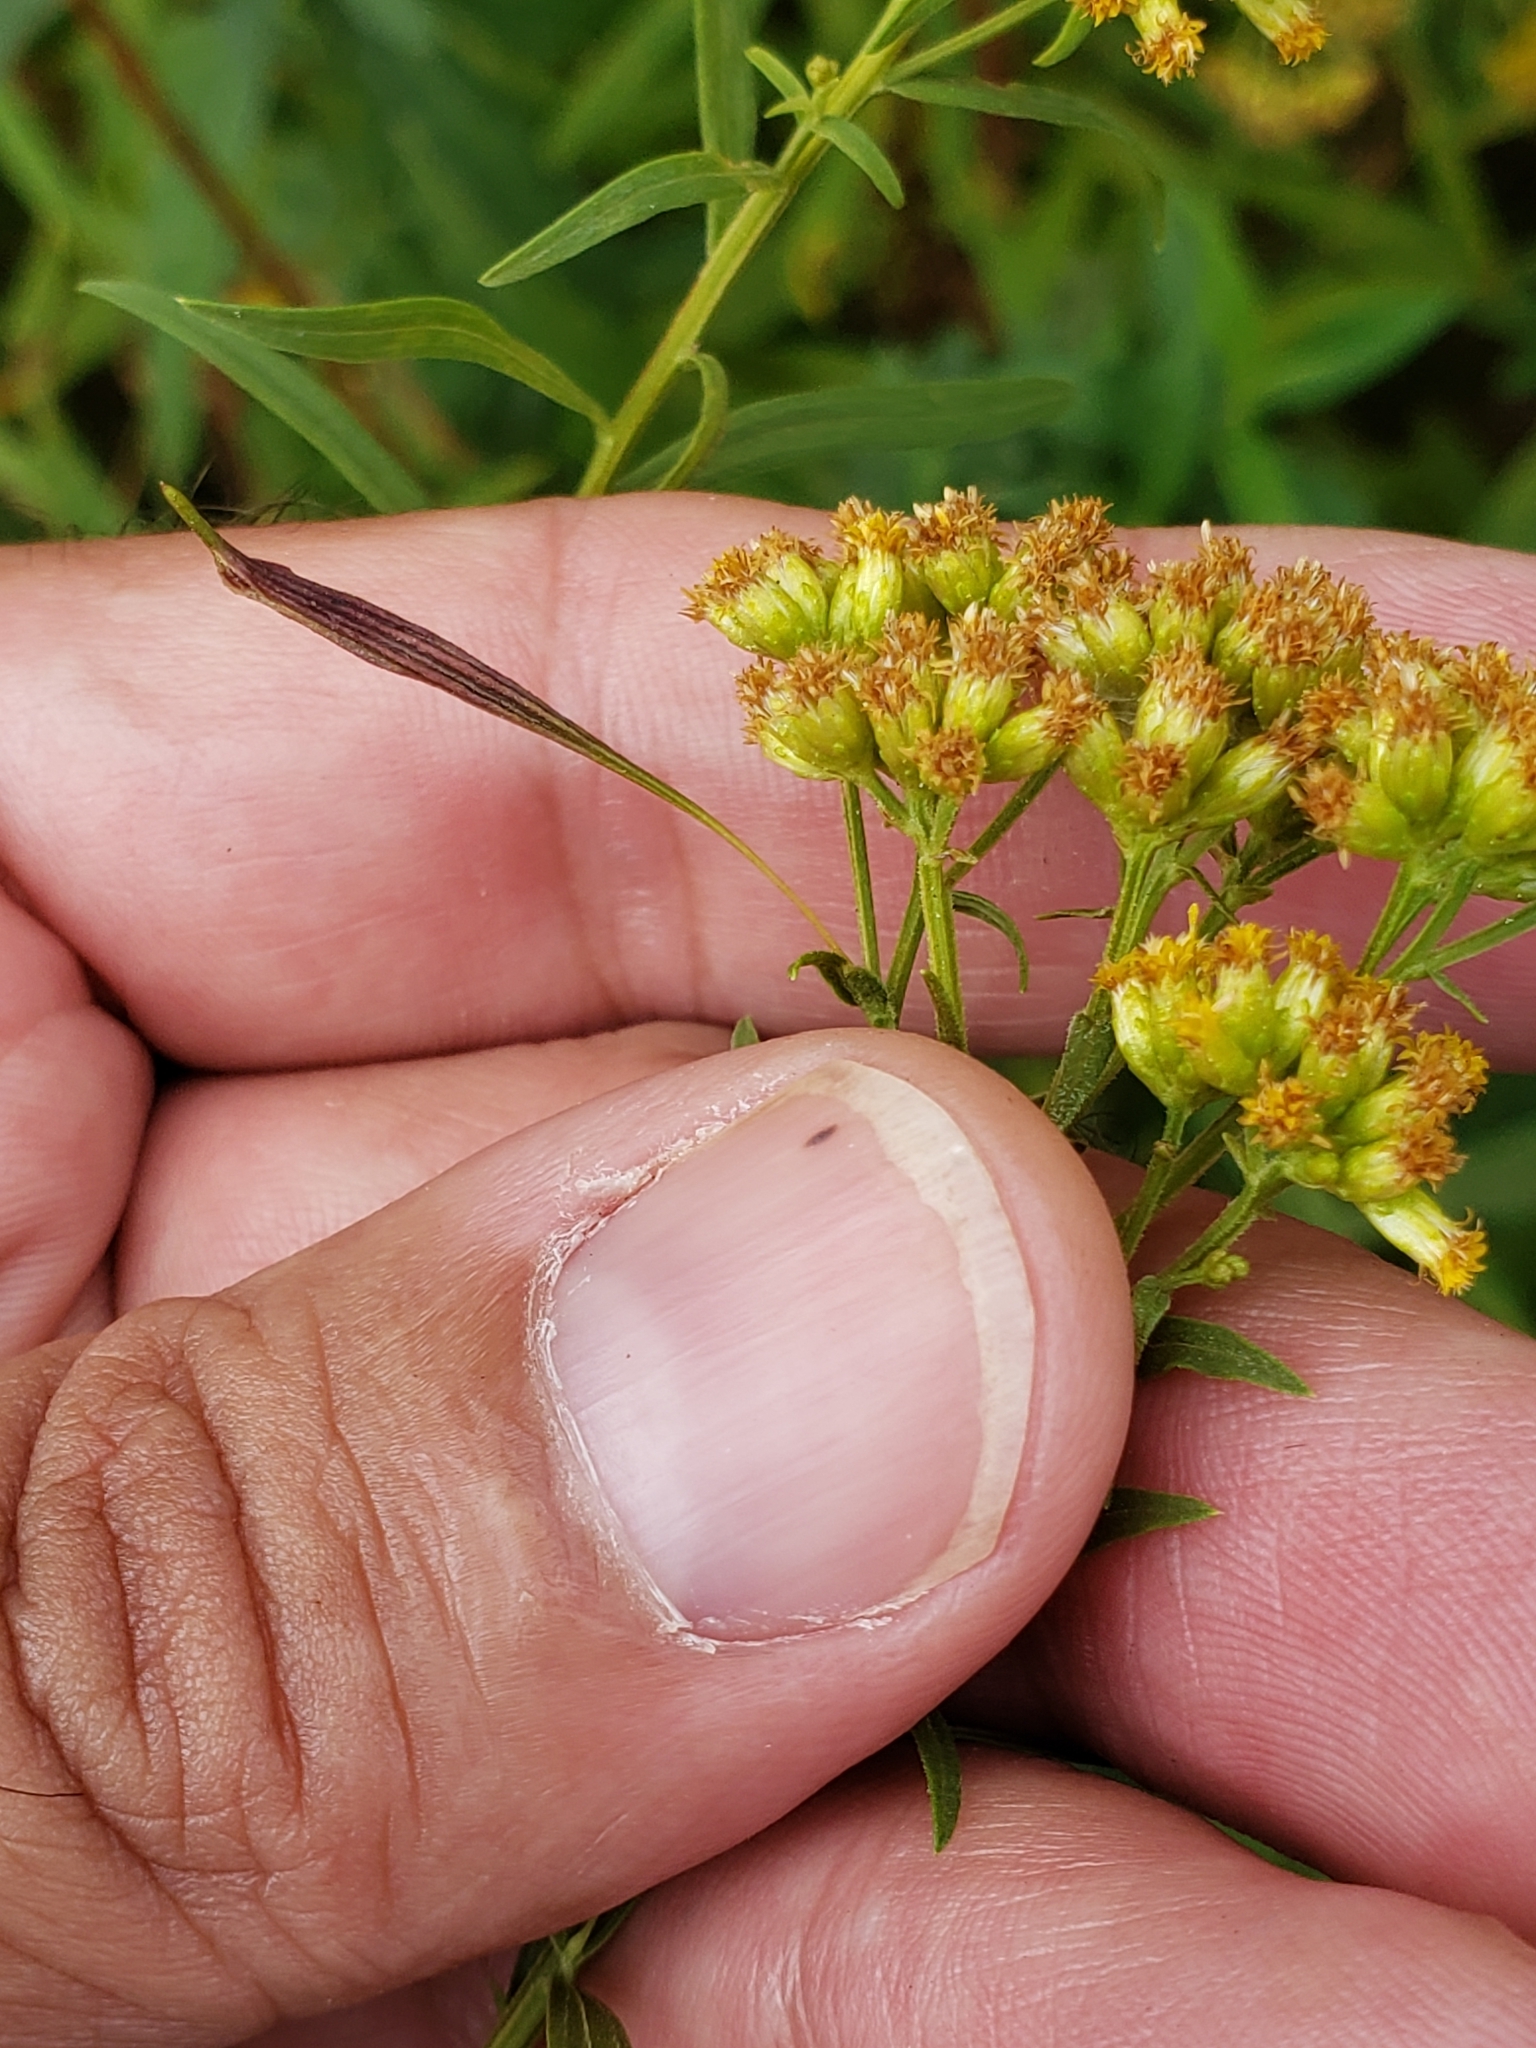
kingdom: Animalia
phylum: Arthropoda
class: Insecta
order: Diptera
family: Cecidomyiidae
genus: Rhopalomyia
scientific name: Rhopalomyia pedicellata
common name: Goldentop pedicellate gall midge
